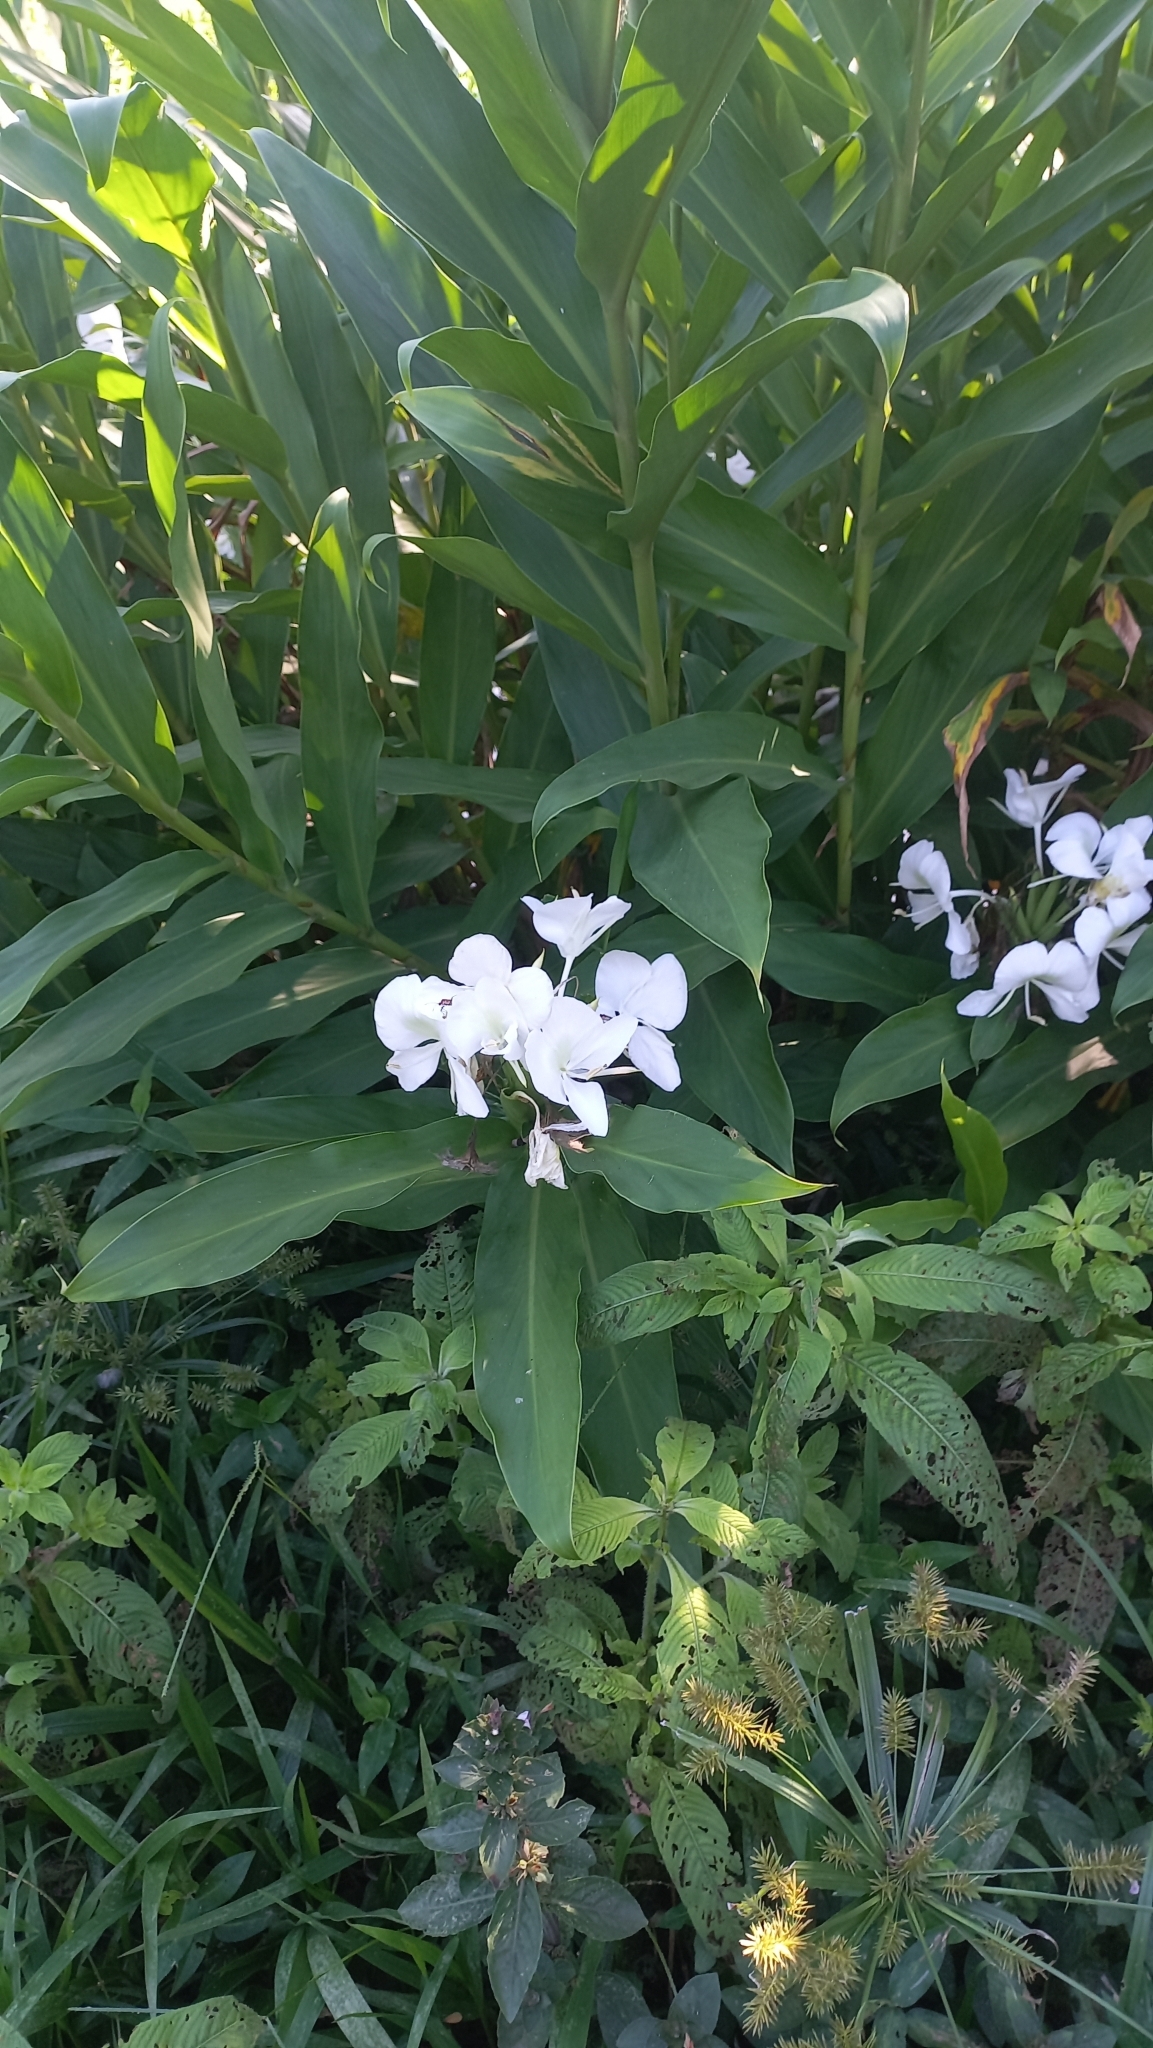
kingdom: Plantae
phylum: Tracheophyta
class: Liliopsida
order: Zingiberales
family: Zingiberaceae
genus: Hedychium
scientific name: Hedychium coronarium
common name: White garland-lily
